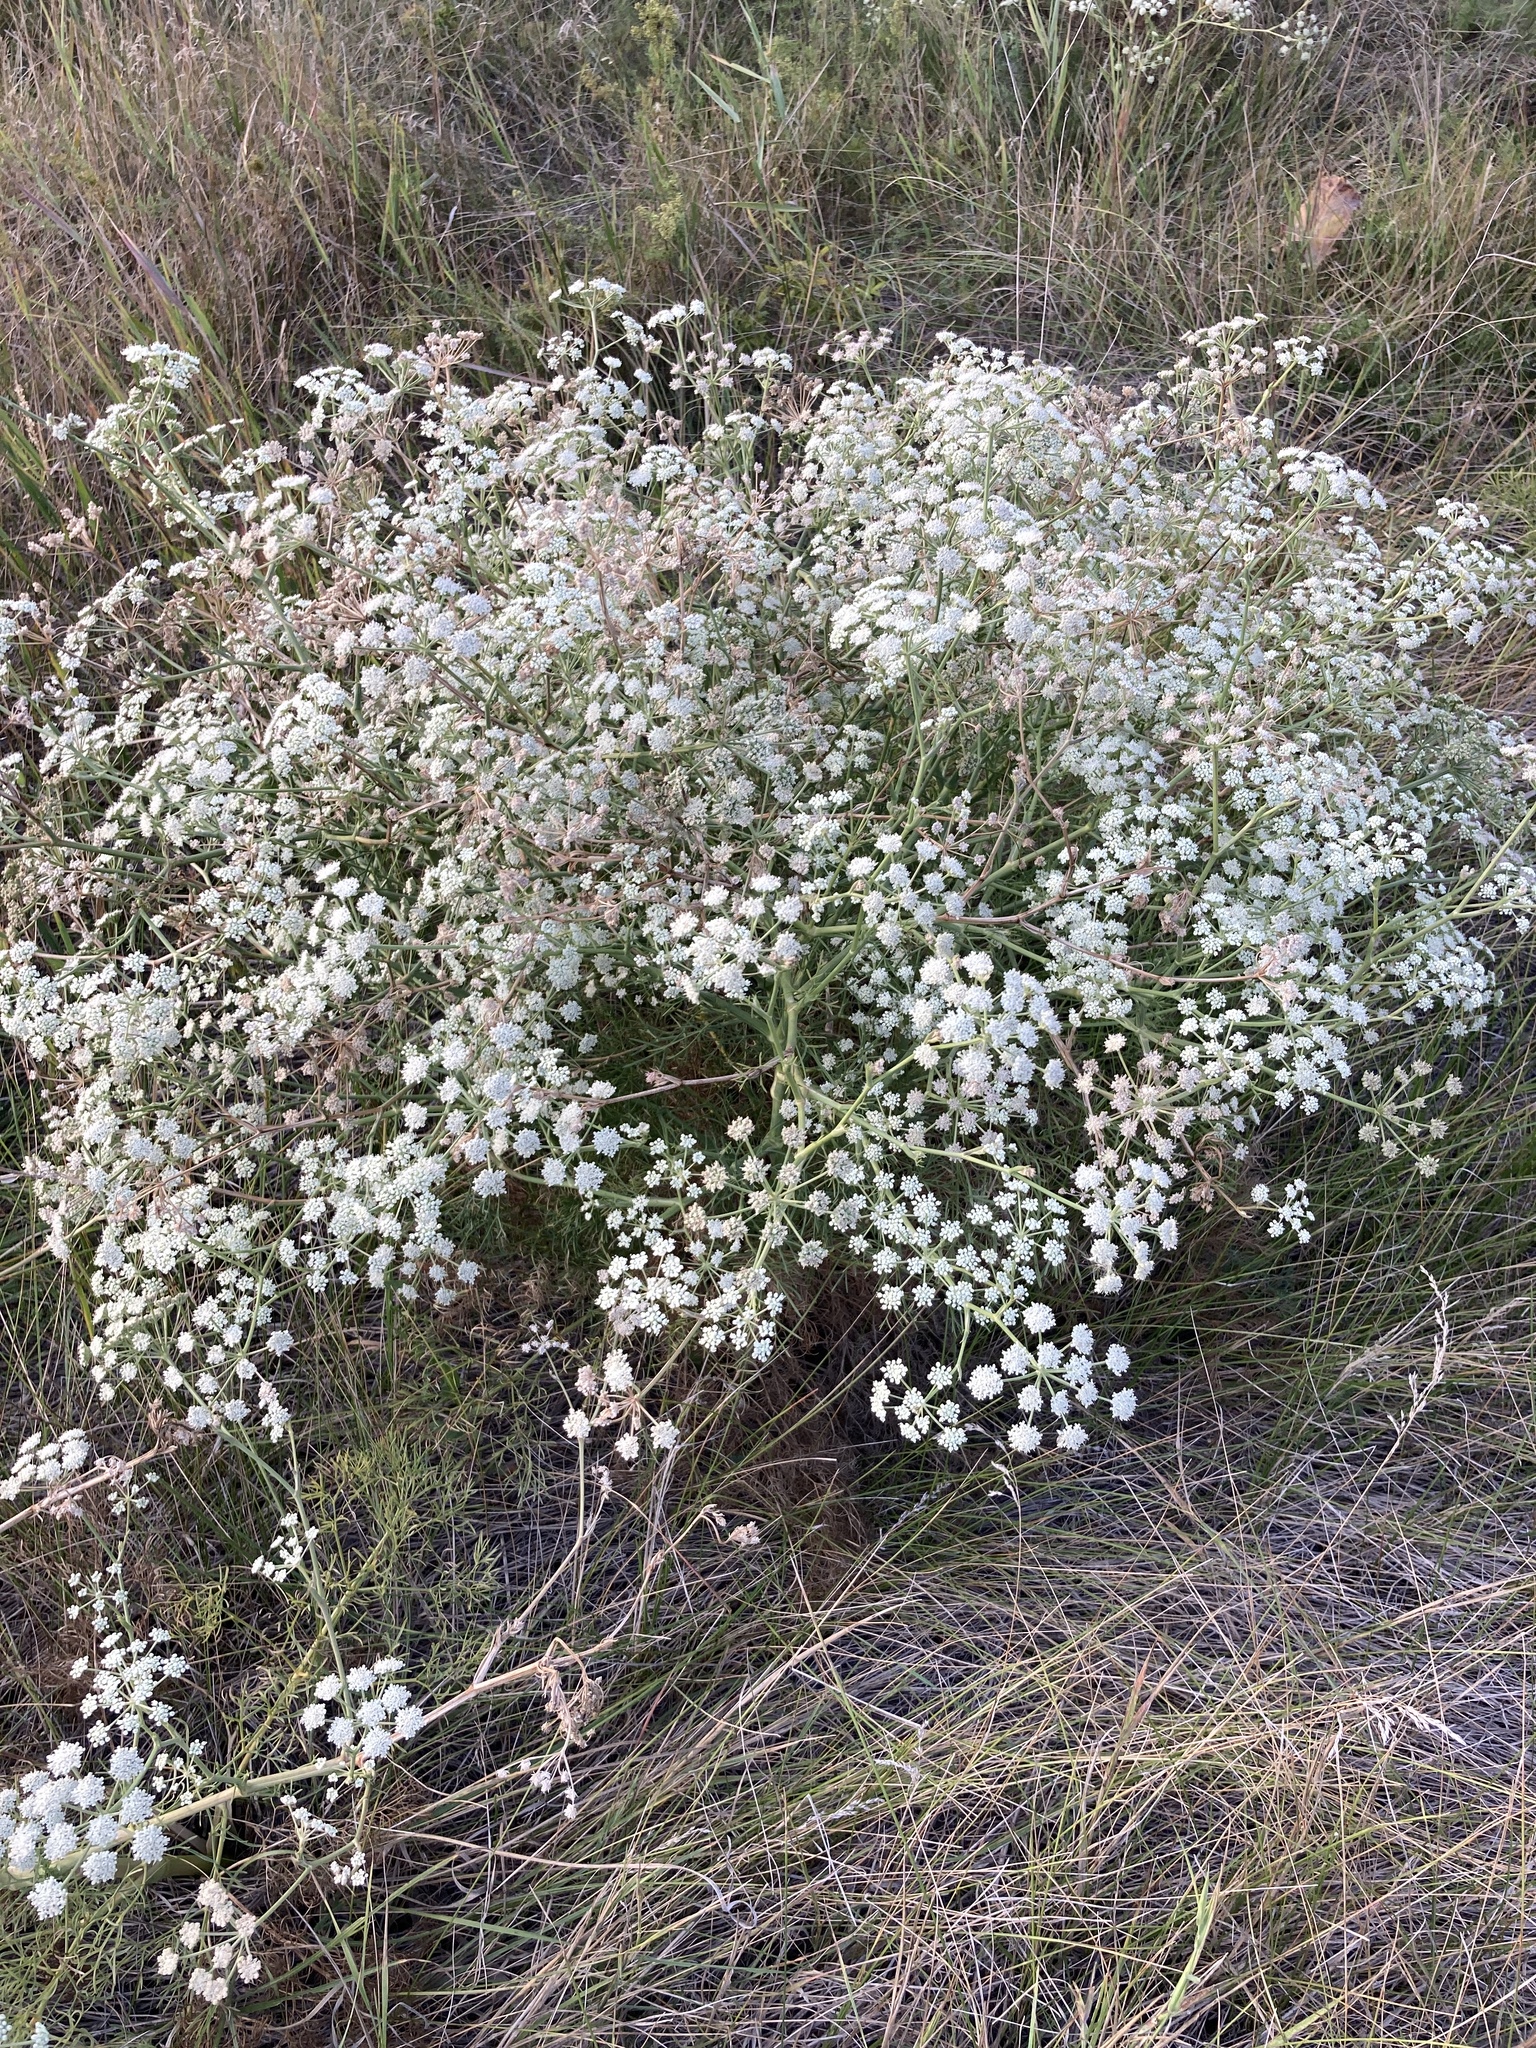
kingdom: Plantae
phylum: Tracheophyta
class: Magnoliopsida
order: Apiales
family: Apiaceae
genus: Seseli
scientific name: Seseli arenarium
